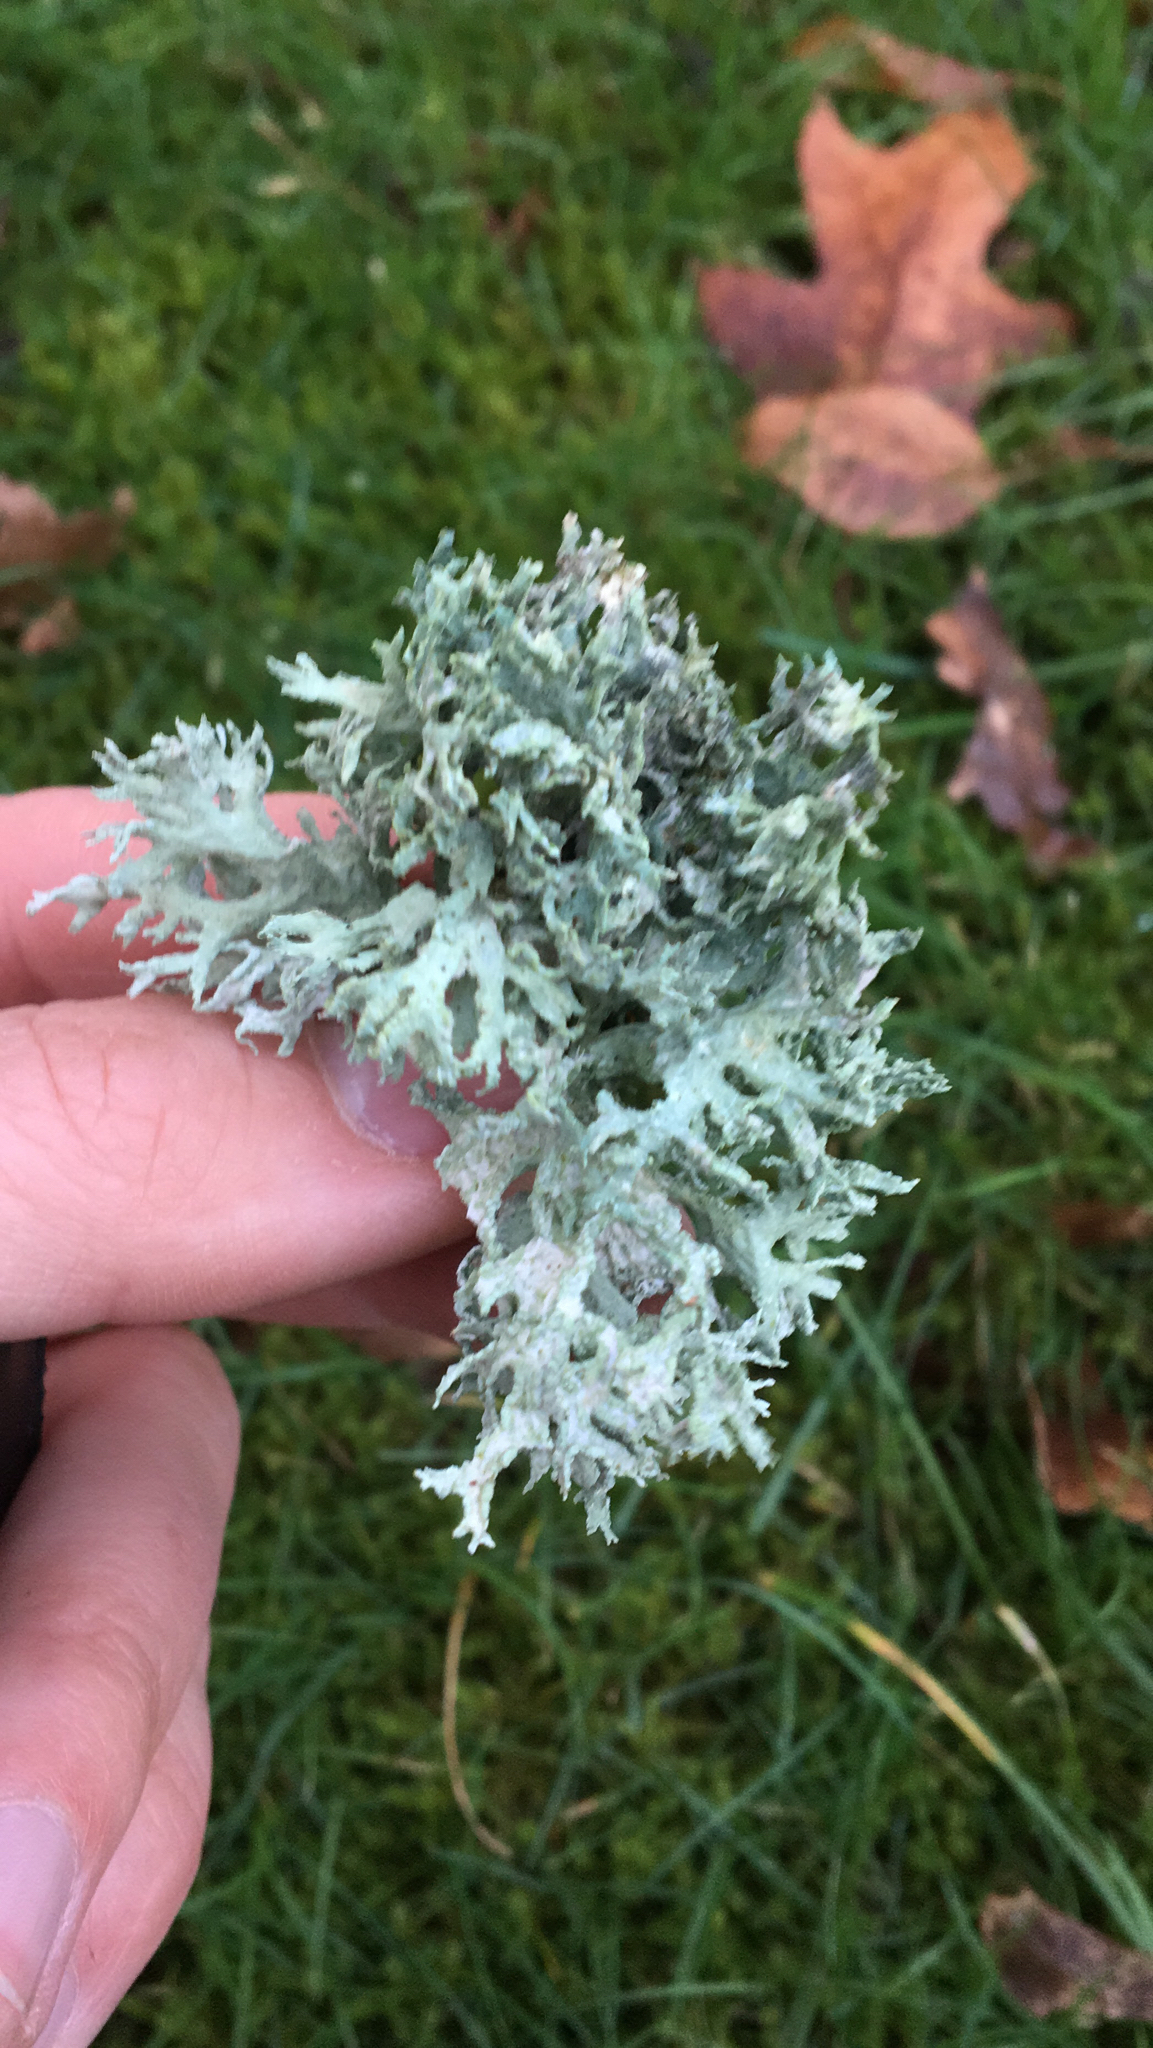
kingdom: Fungi
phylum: Ascomycota
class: Lecanoromycetes
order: Lecanorales
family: Parmeliaceae
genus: Evernia
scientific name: Evernia prunastri
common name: Oak moss
